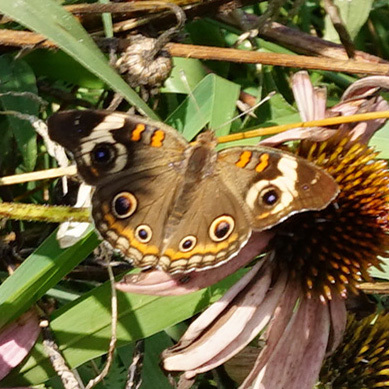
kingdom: Animalia
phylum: Arthropoda
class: Insecta
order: Lepidoptera
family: Nymphalidae
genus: Junonia
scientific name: Junonia coenia
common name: Common buckeye
